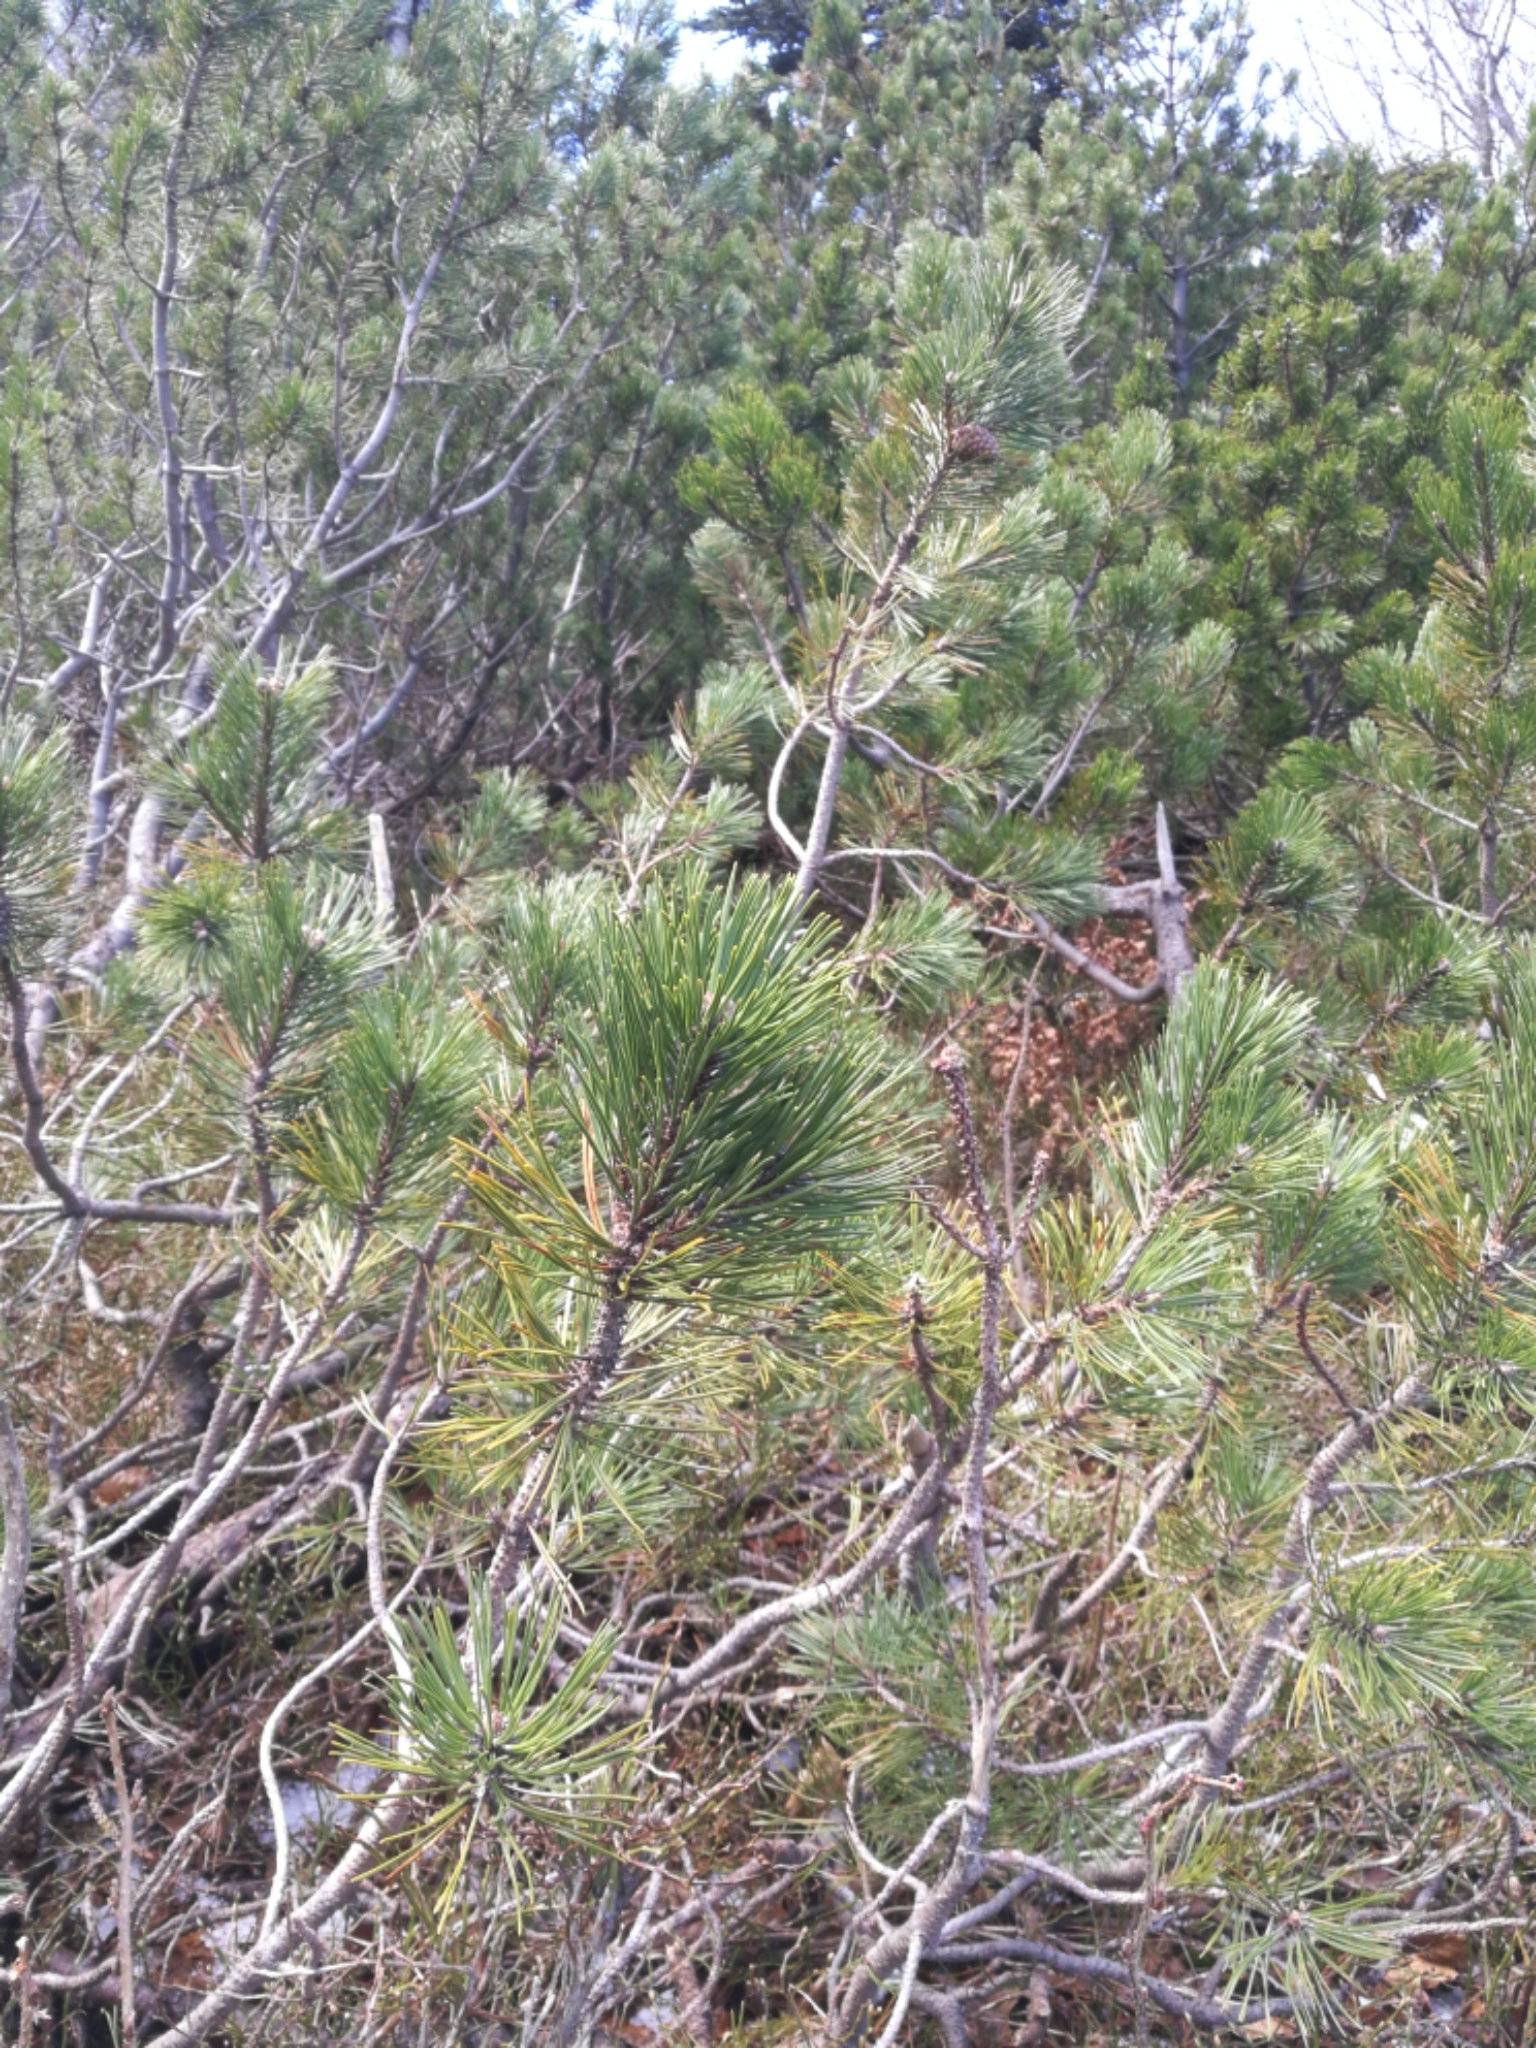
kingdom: Plantae
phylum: Tracheophyta
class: Pinopsida
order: Pinales
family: Pinaceae
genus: Pinus
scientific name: Pinus mugo
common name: Mugo pine
